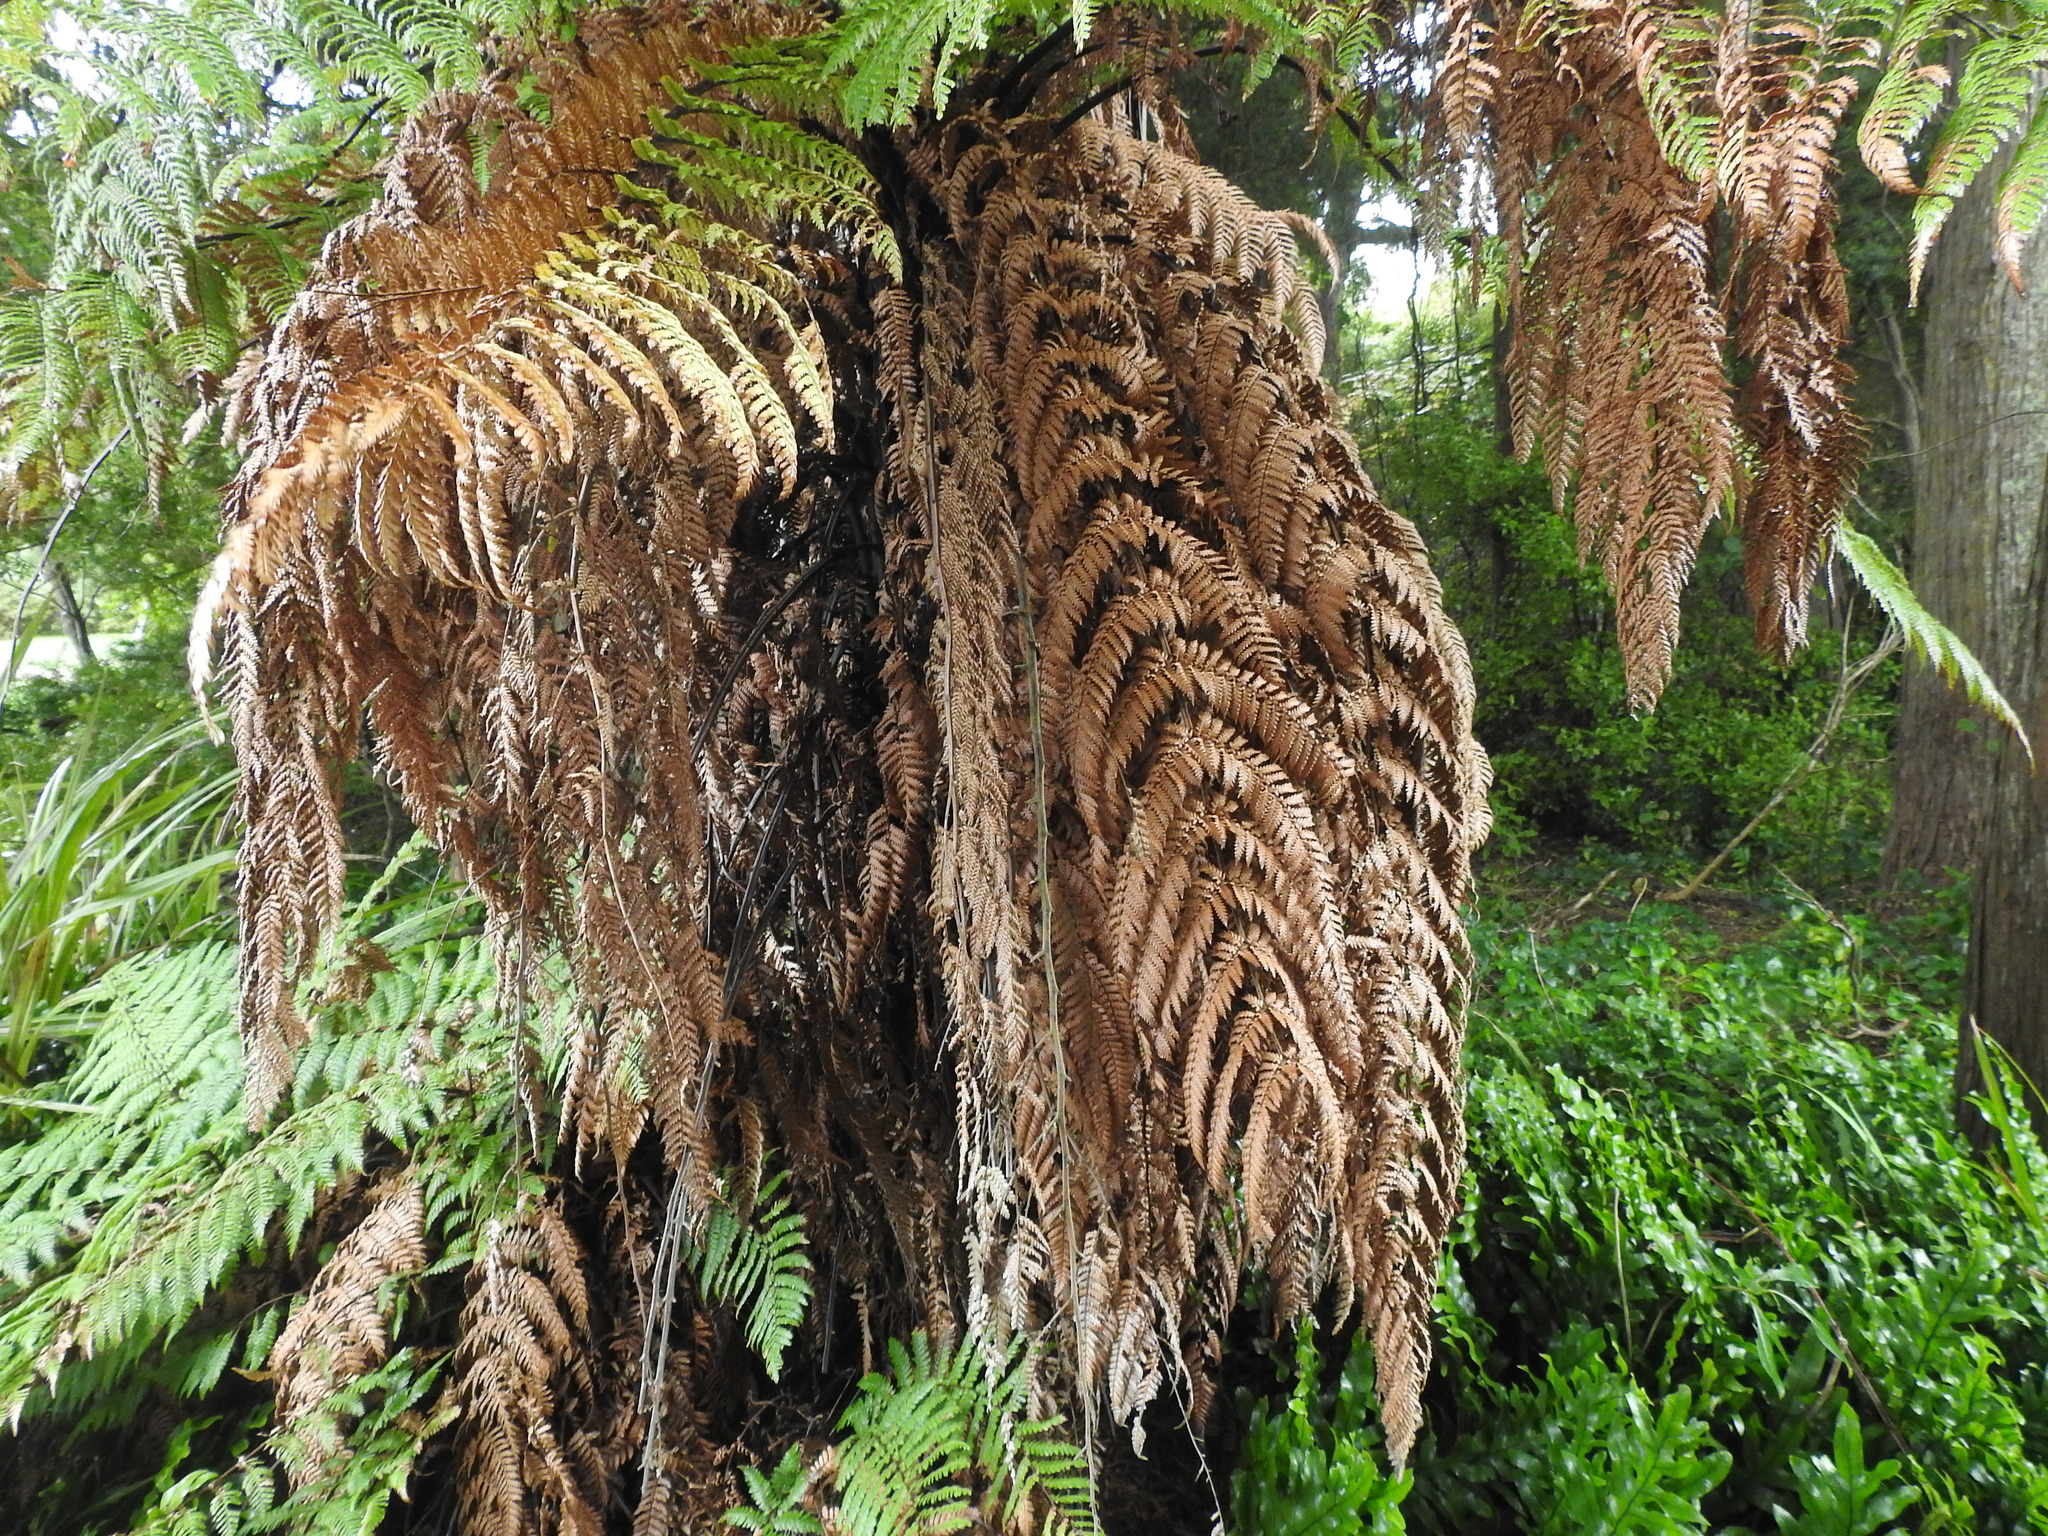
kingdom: Plantae
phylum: Tracheophyta
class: Polypodiopsida
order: Cyatheales
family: Dicksoniaceae
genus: Dicksonia
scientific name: Dicksonia squarrosa
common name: Hard treefern
